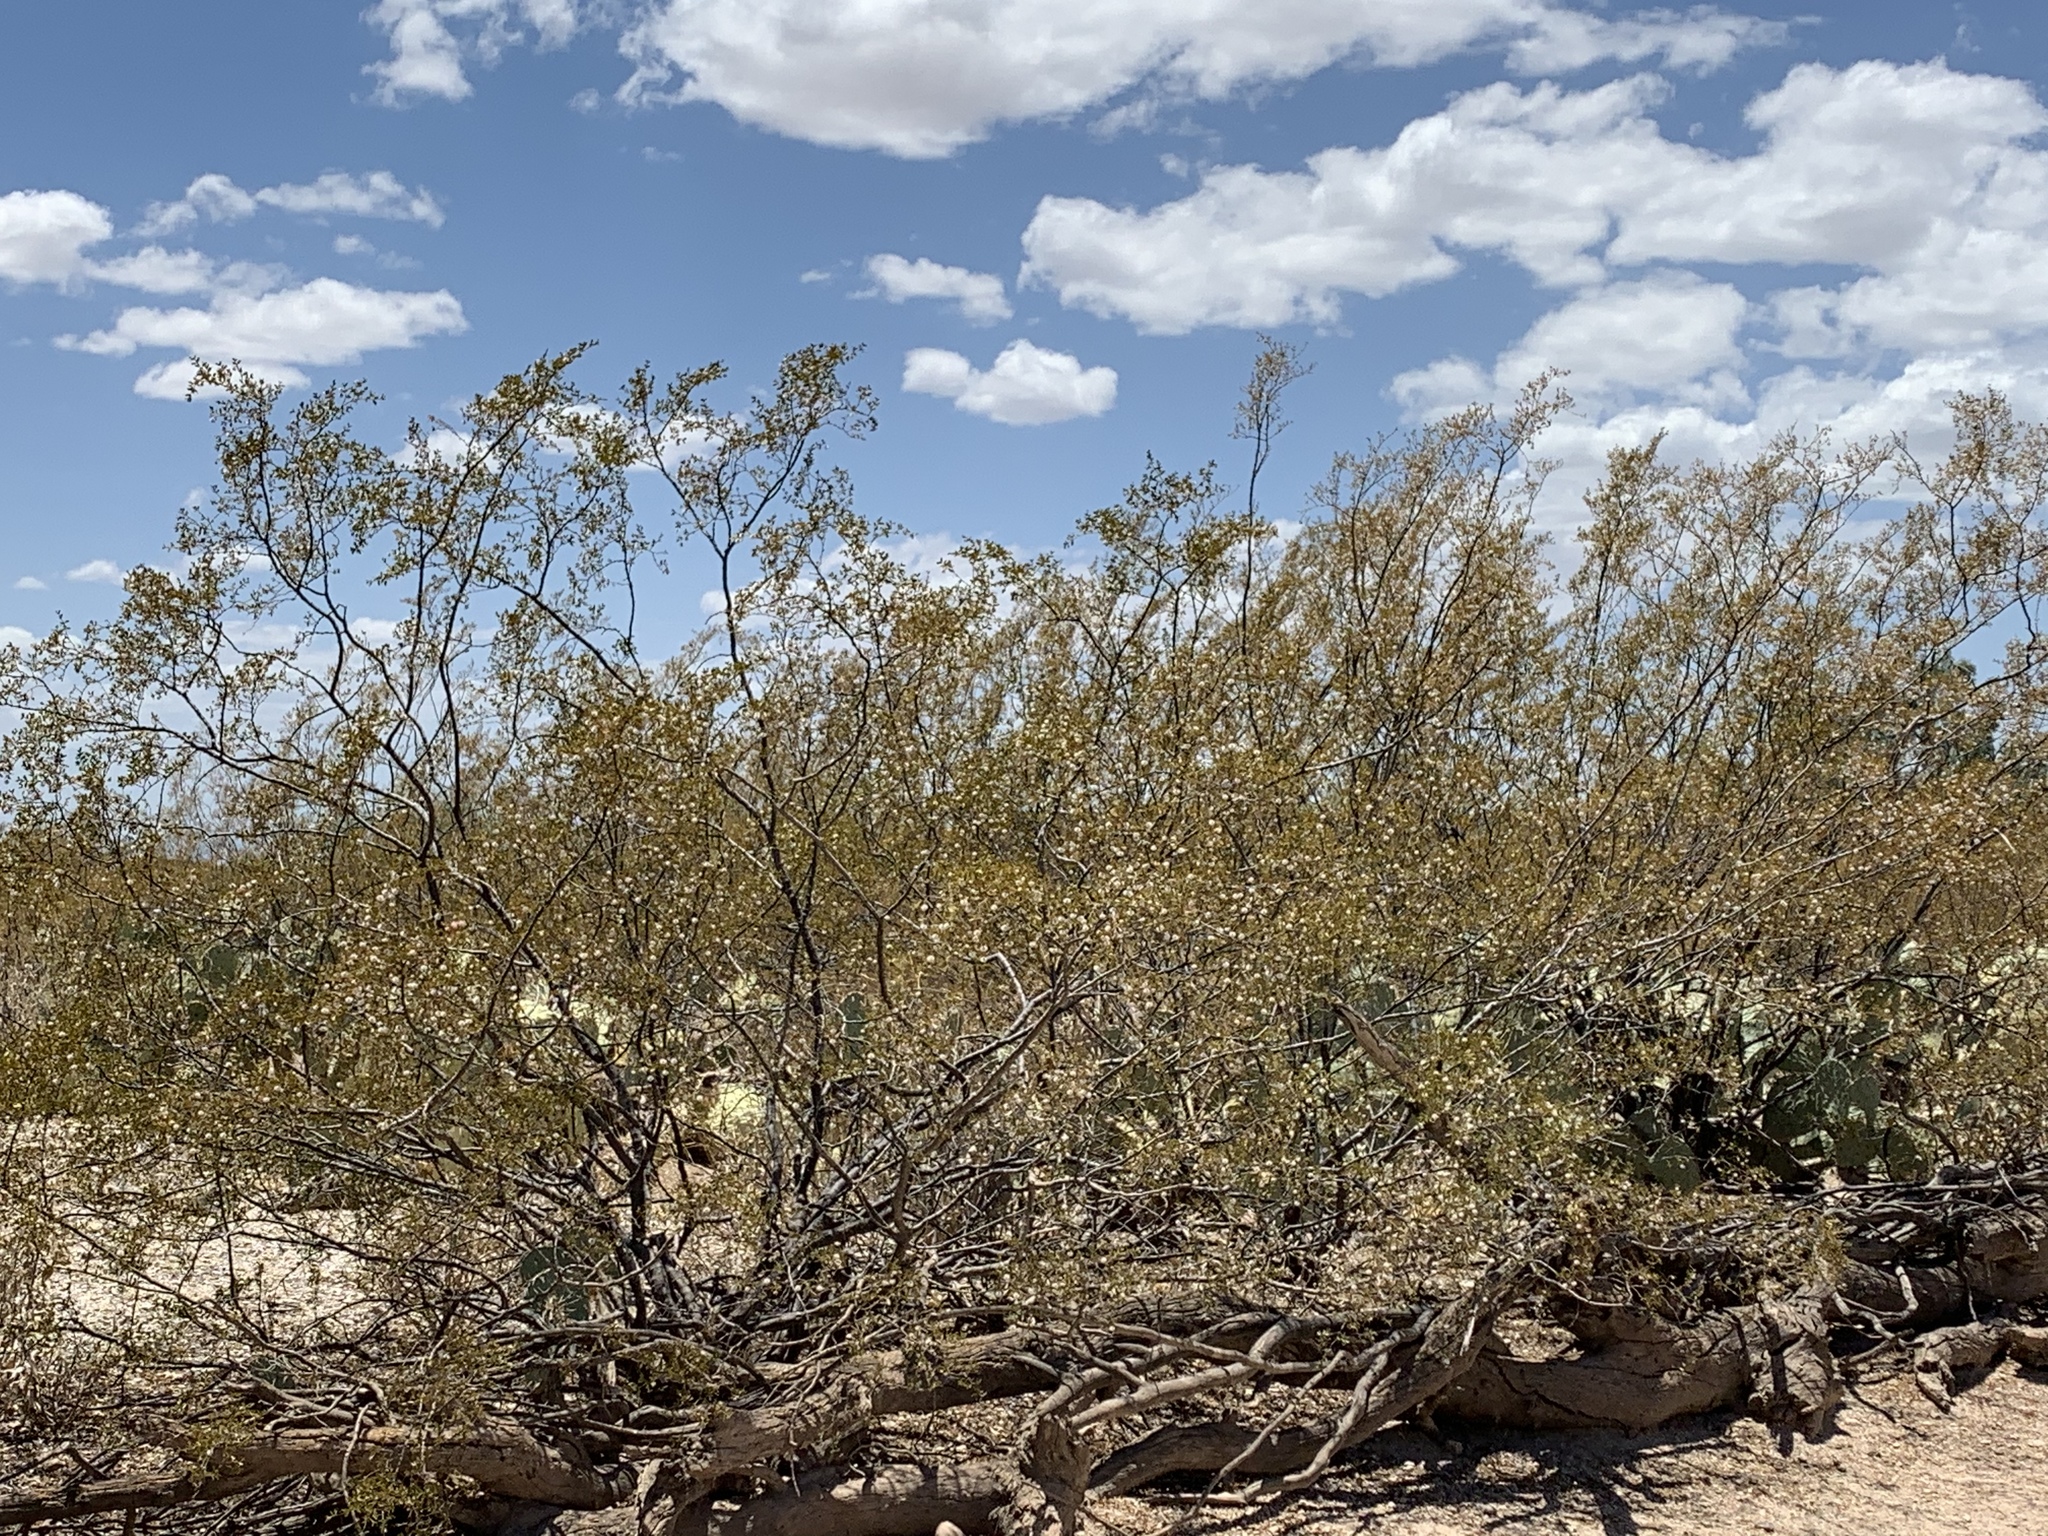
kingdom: Plantae
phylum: Tracheophyta
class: Magnoliopsida
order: Zygophyllales
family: Zygophyllaceae
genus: Larrea
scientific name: Larrea tridentata
